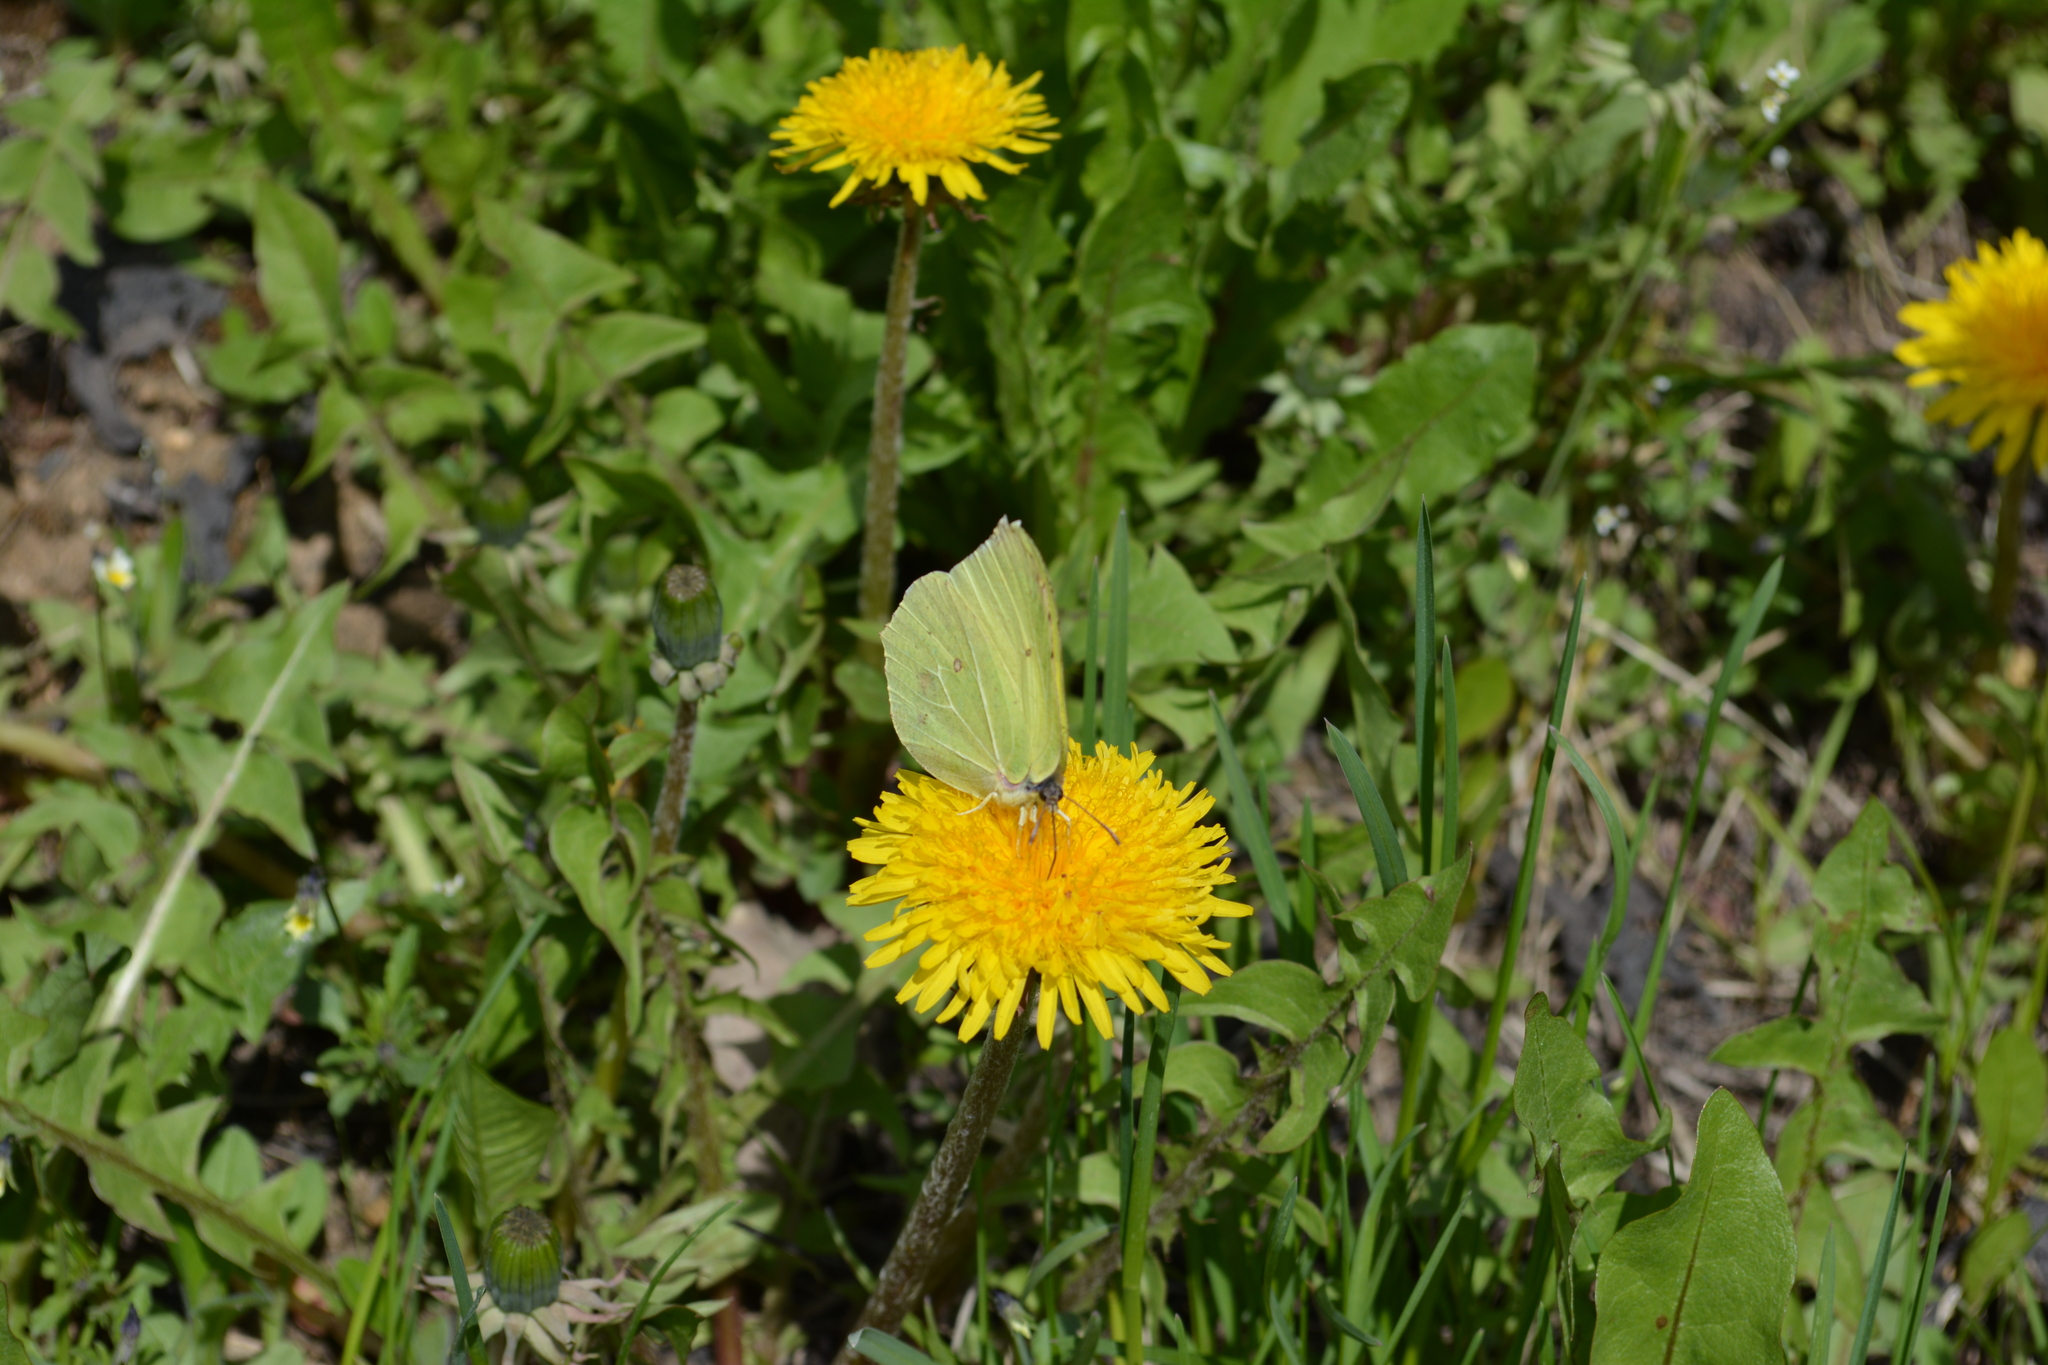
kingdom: Animalia
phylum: Arthropoda
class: Insecta
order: Lepidoptera
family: Pieridae
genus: Gonepteryx
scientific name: Gonepteryx rhamni
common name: Brimstone
